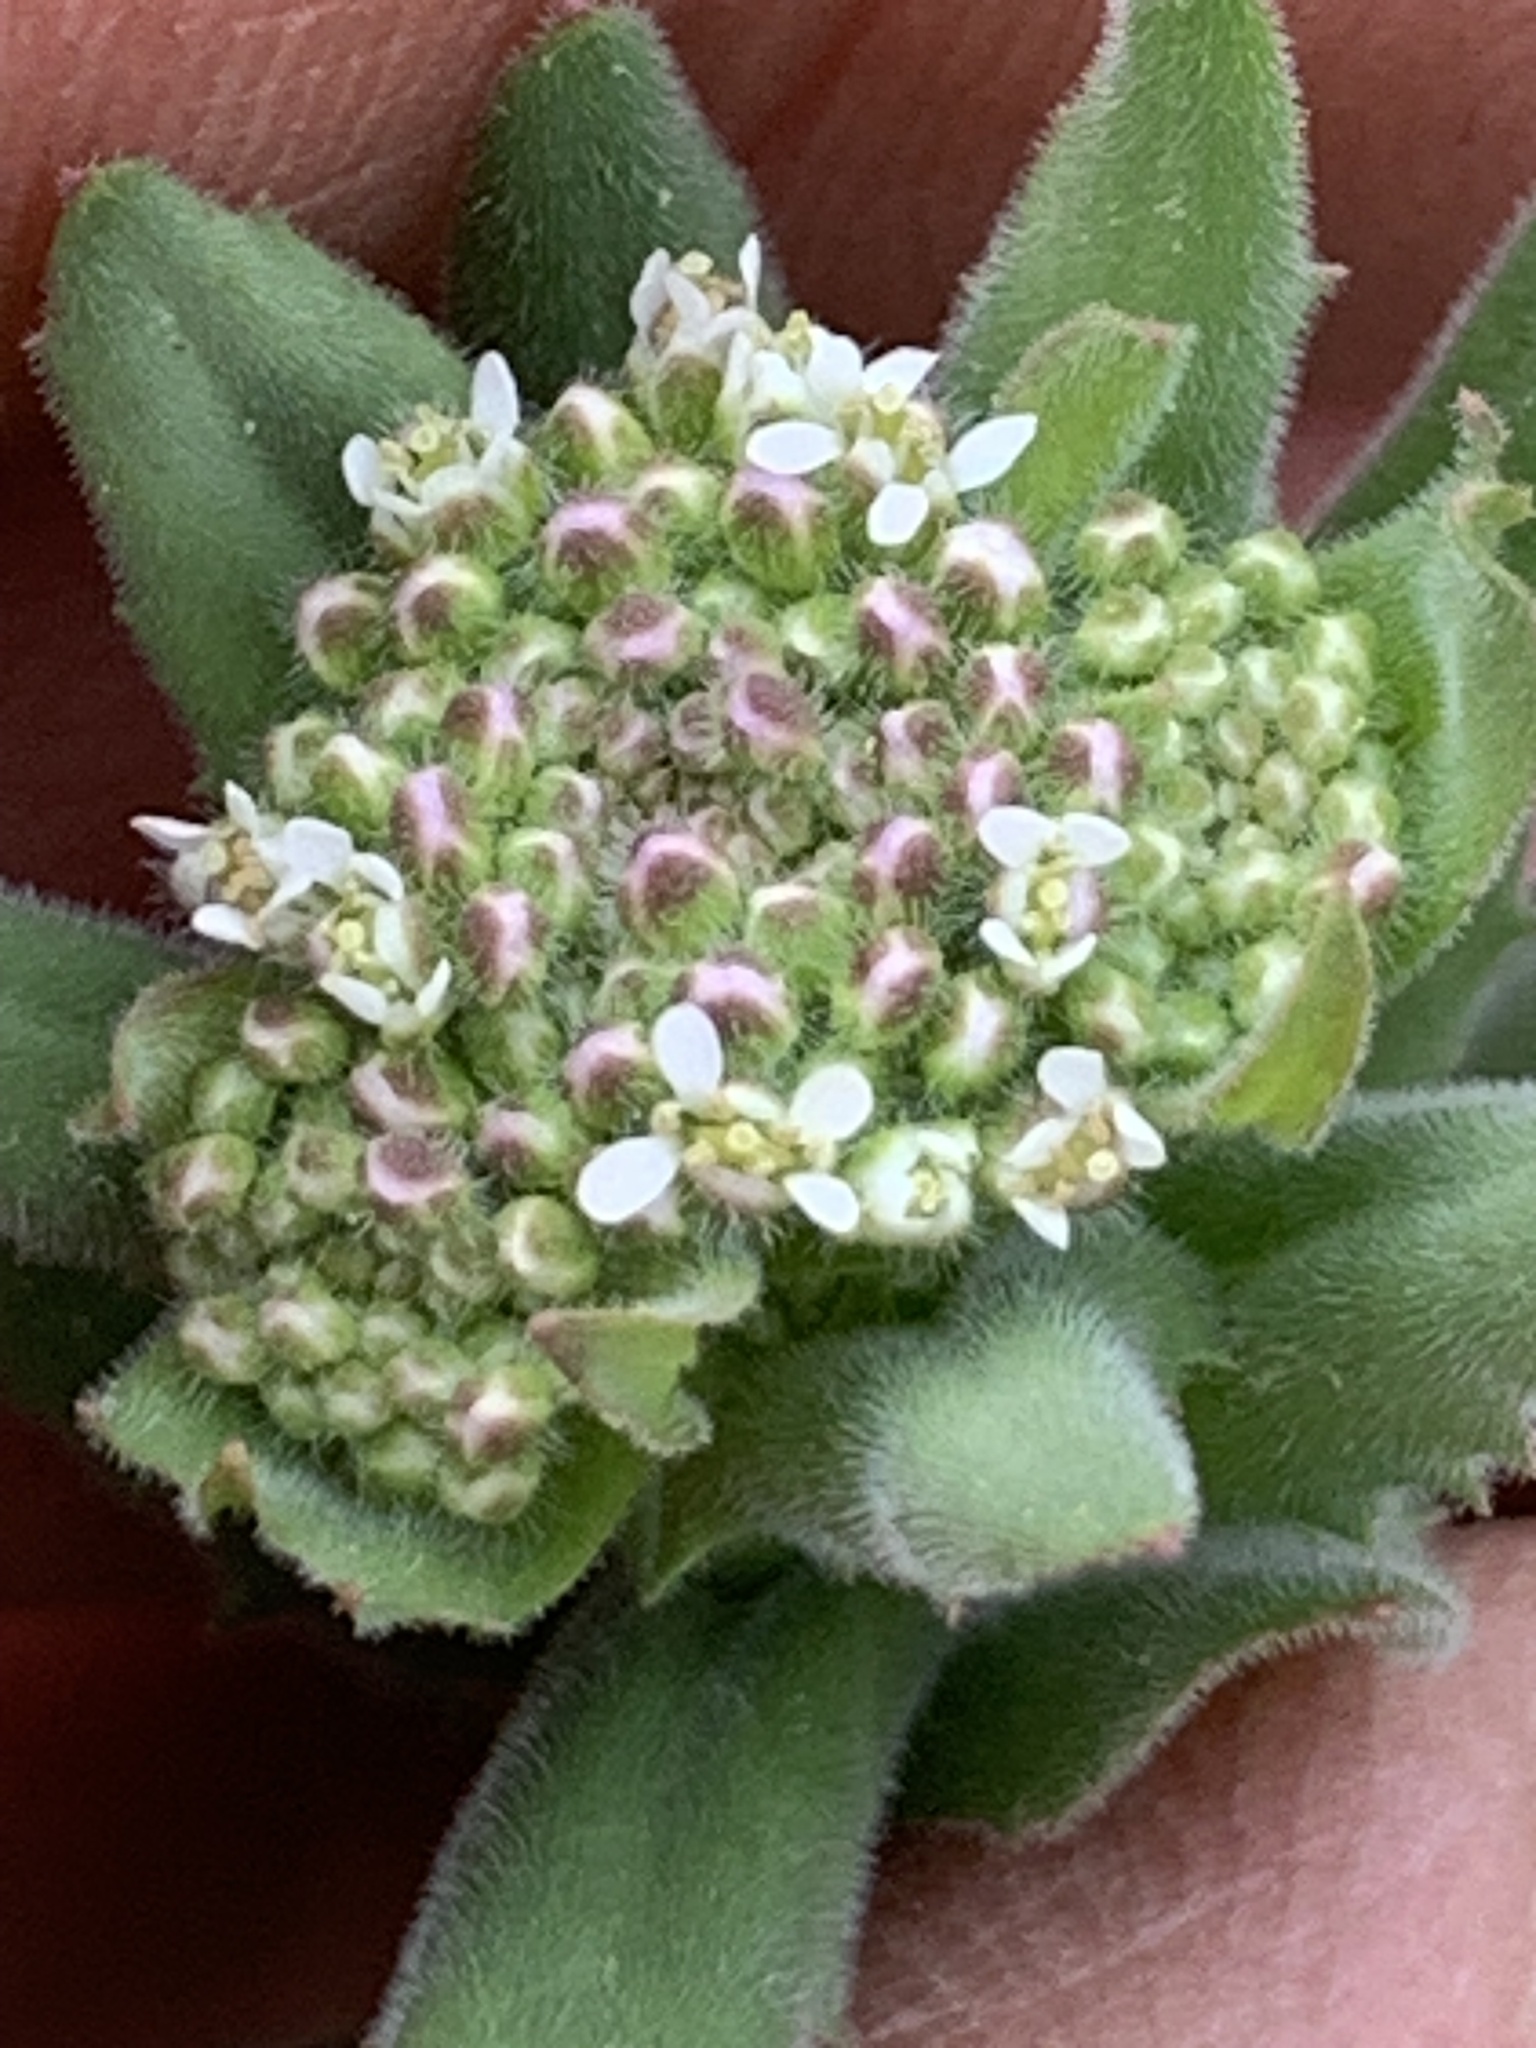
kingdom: Plantae
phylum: Tracheophyta
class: Magnoliopsida
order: Brassicales
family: Brassicaceae
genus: Lepidium
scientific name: Lepidium campestre
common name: Field pepperwort
